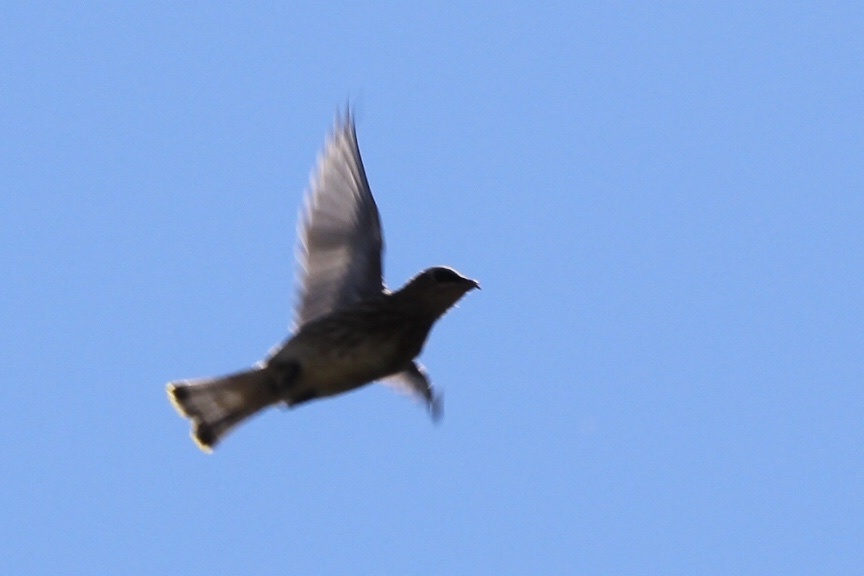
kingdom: Animalia
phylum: Chordata
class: Aves
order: Passeriformes
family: Bombycillidae
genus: Bombycilla
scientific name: Bombycilla cedrorum
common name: Cedar waxwing
